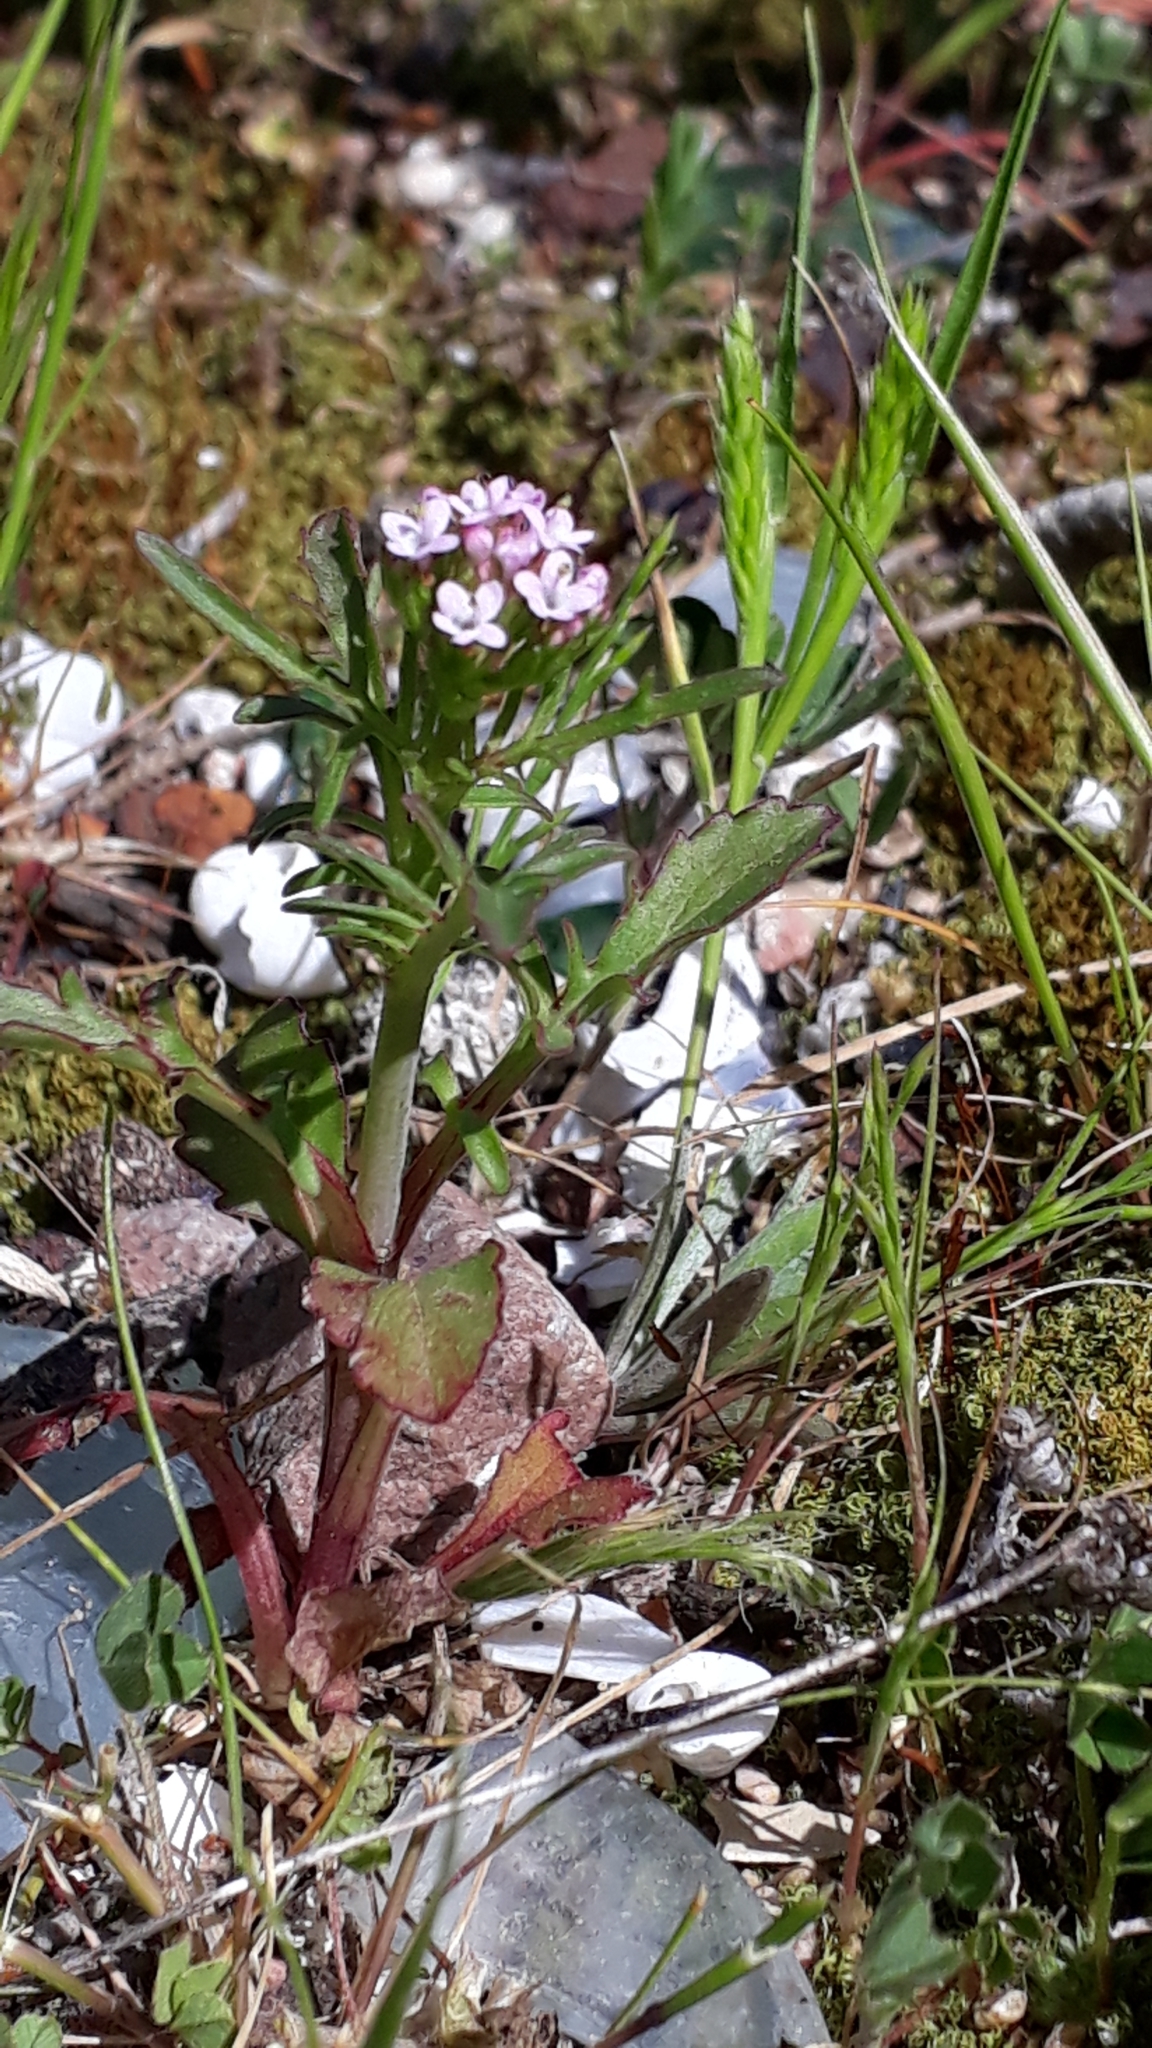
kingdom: Plantae
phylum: Tracheophyta
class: Magnoliopsida
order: Dipsacales
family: Caprifoliaceae
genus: Centranthus
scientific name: Centranthus calcitrapae
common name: Annual valerian
